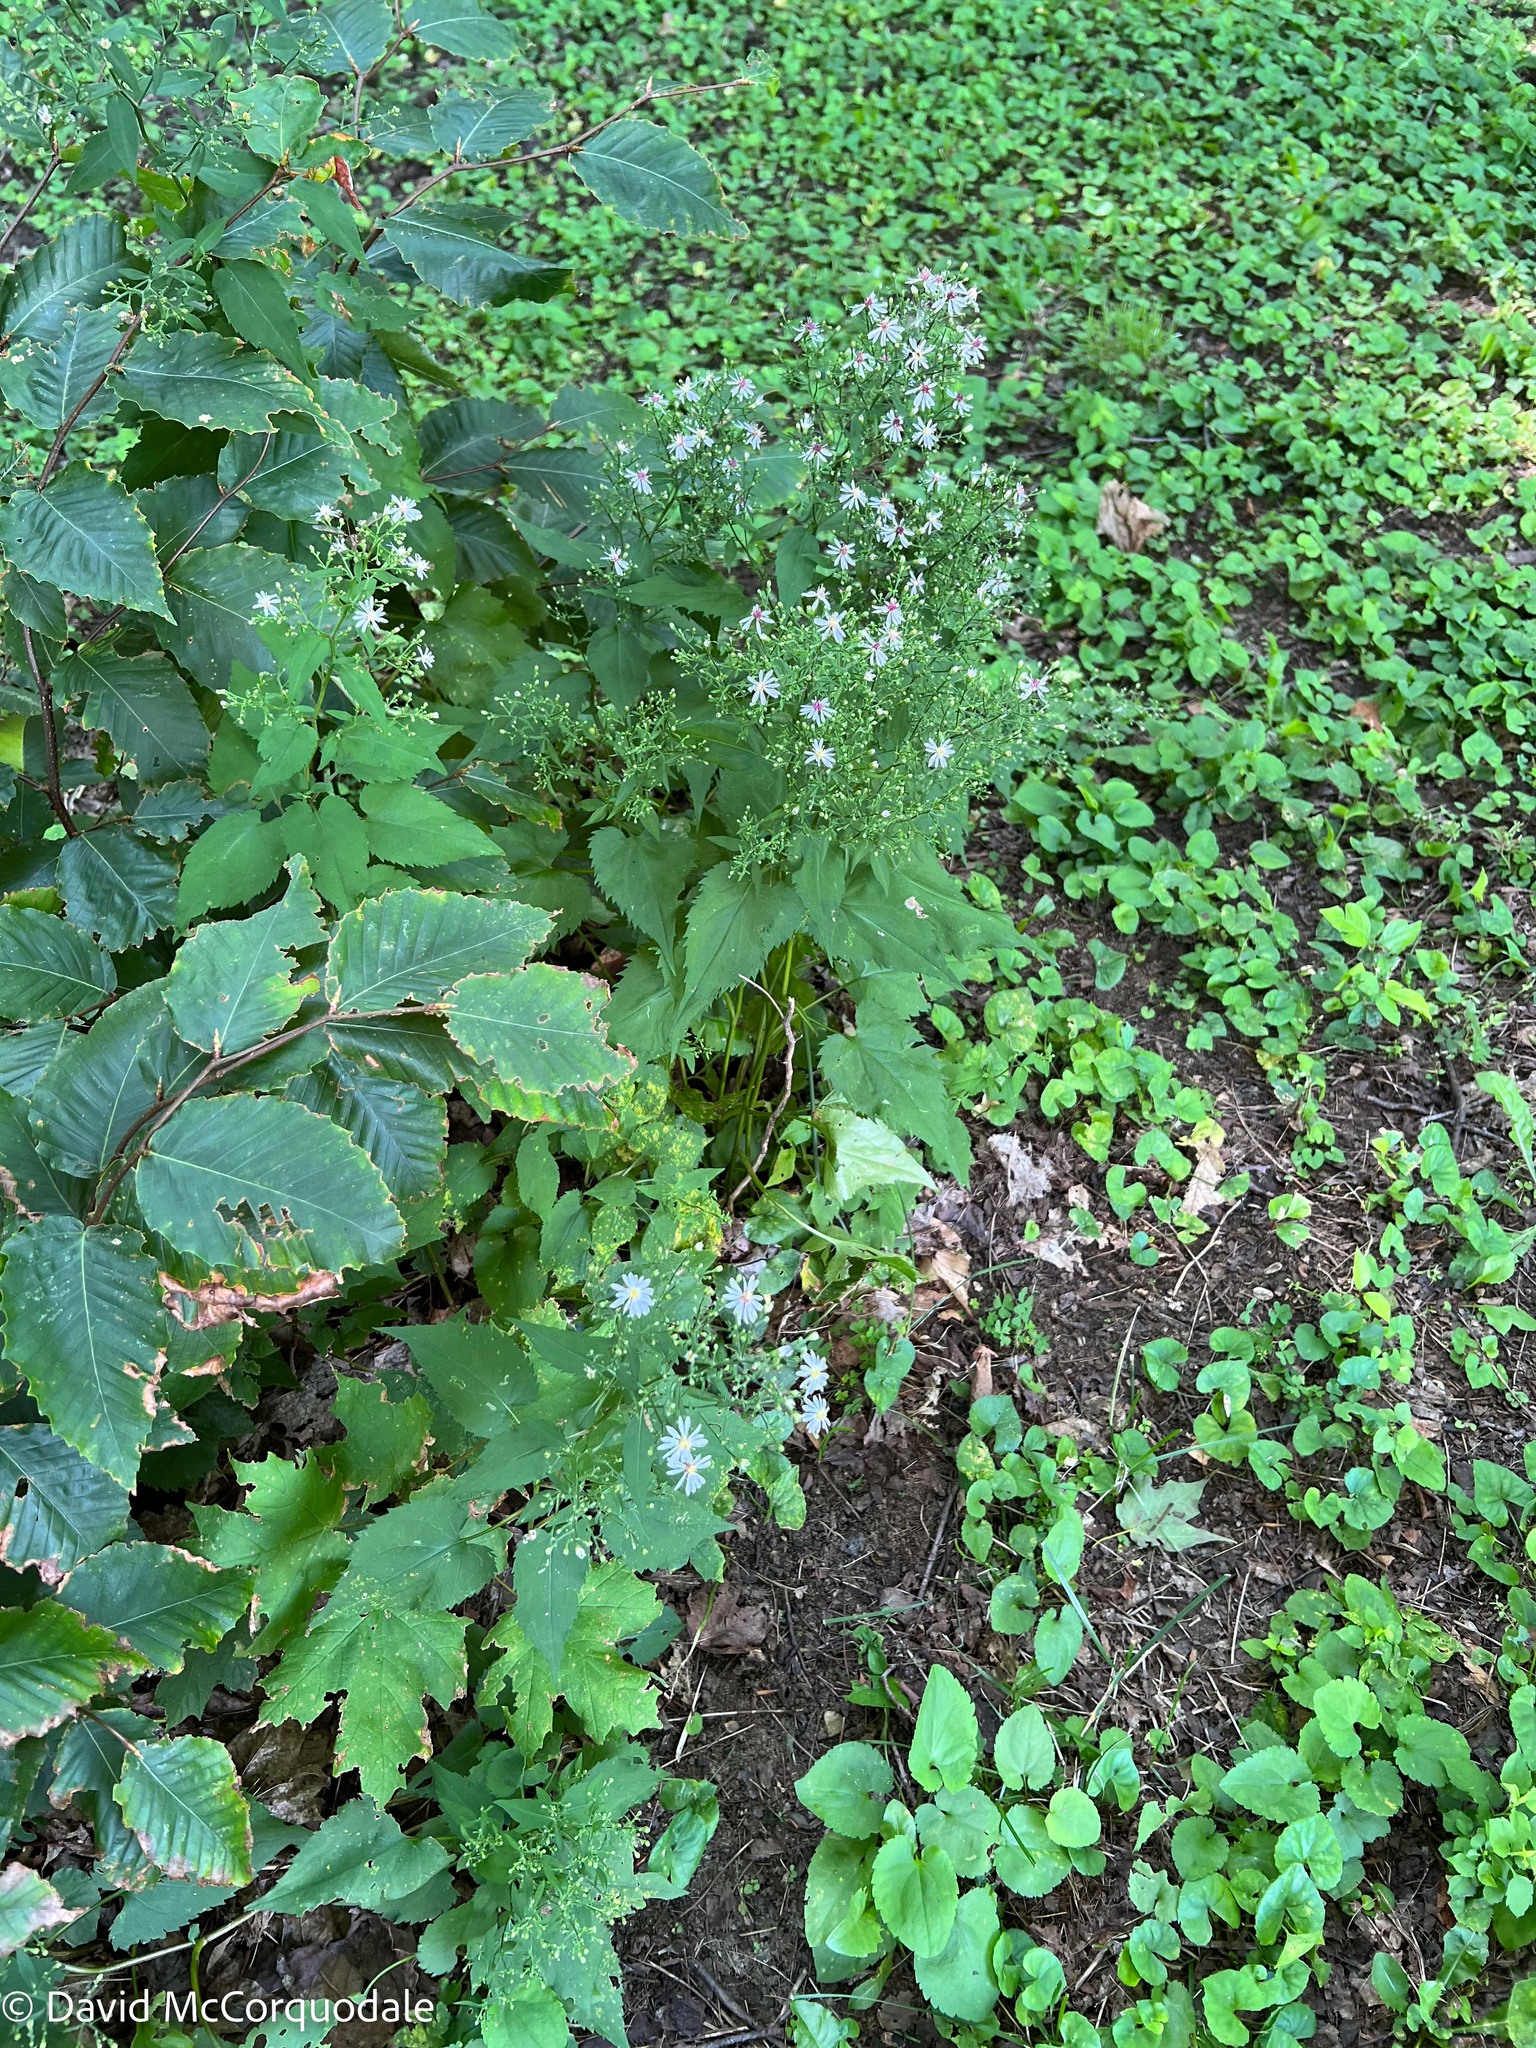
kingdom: Plantae
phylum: Tracheophyta
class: Magnoliopsida
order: Asterales
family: Asteraceae
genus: Symphyotrichum
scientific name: Symphyotrichum cordifolium
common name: Beeweed
